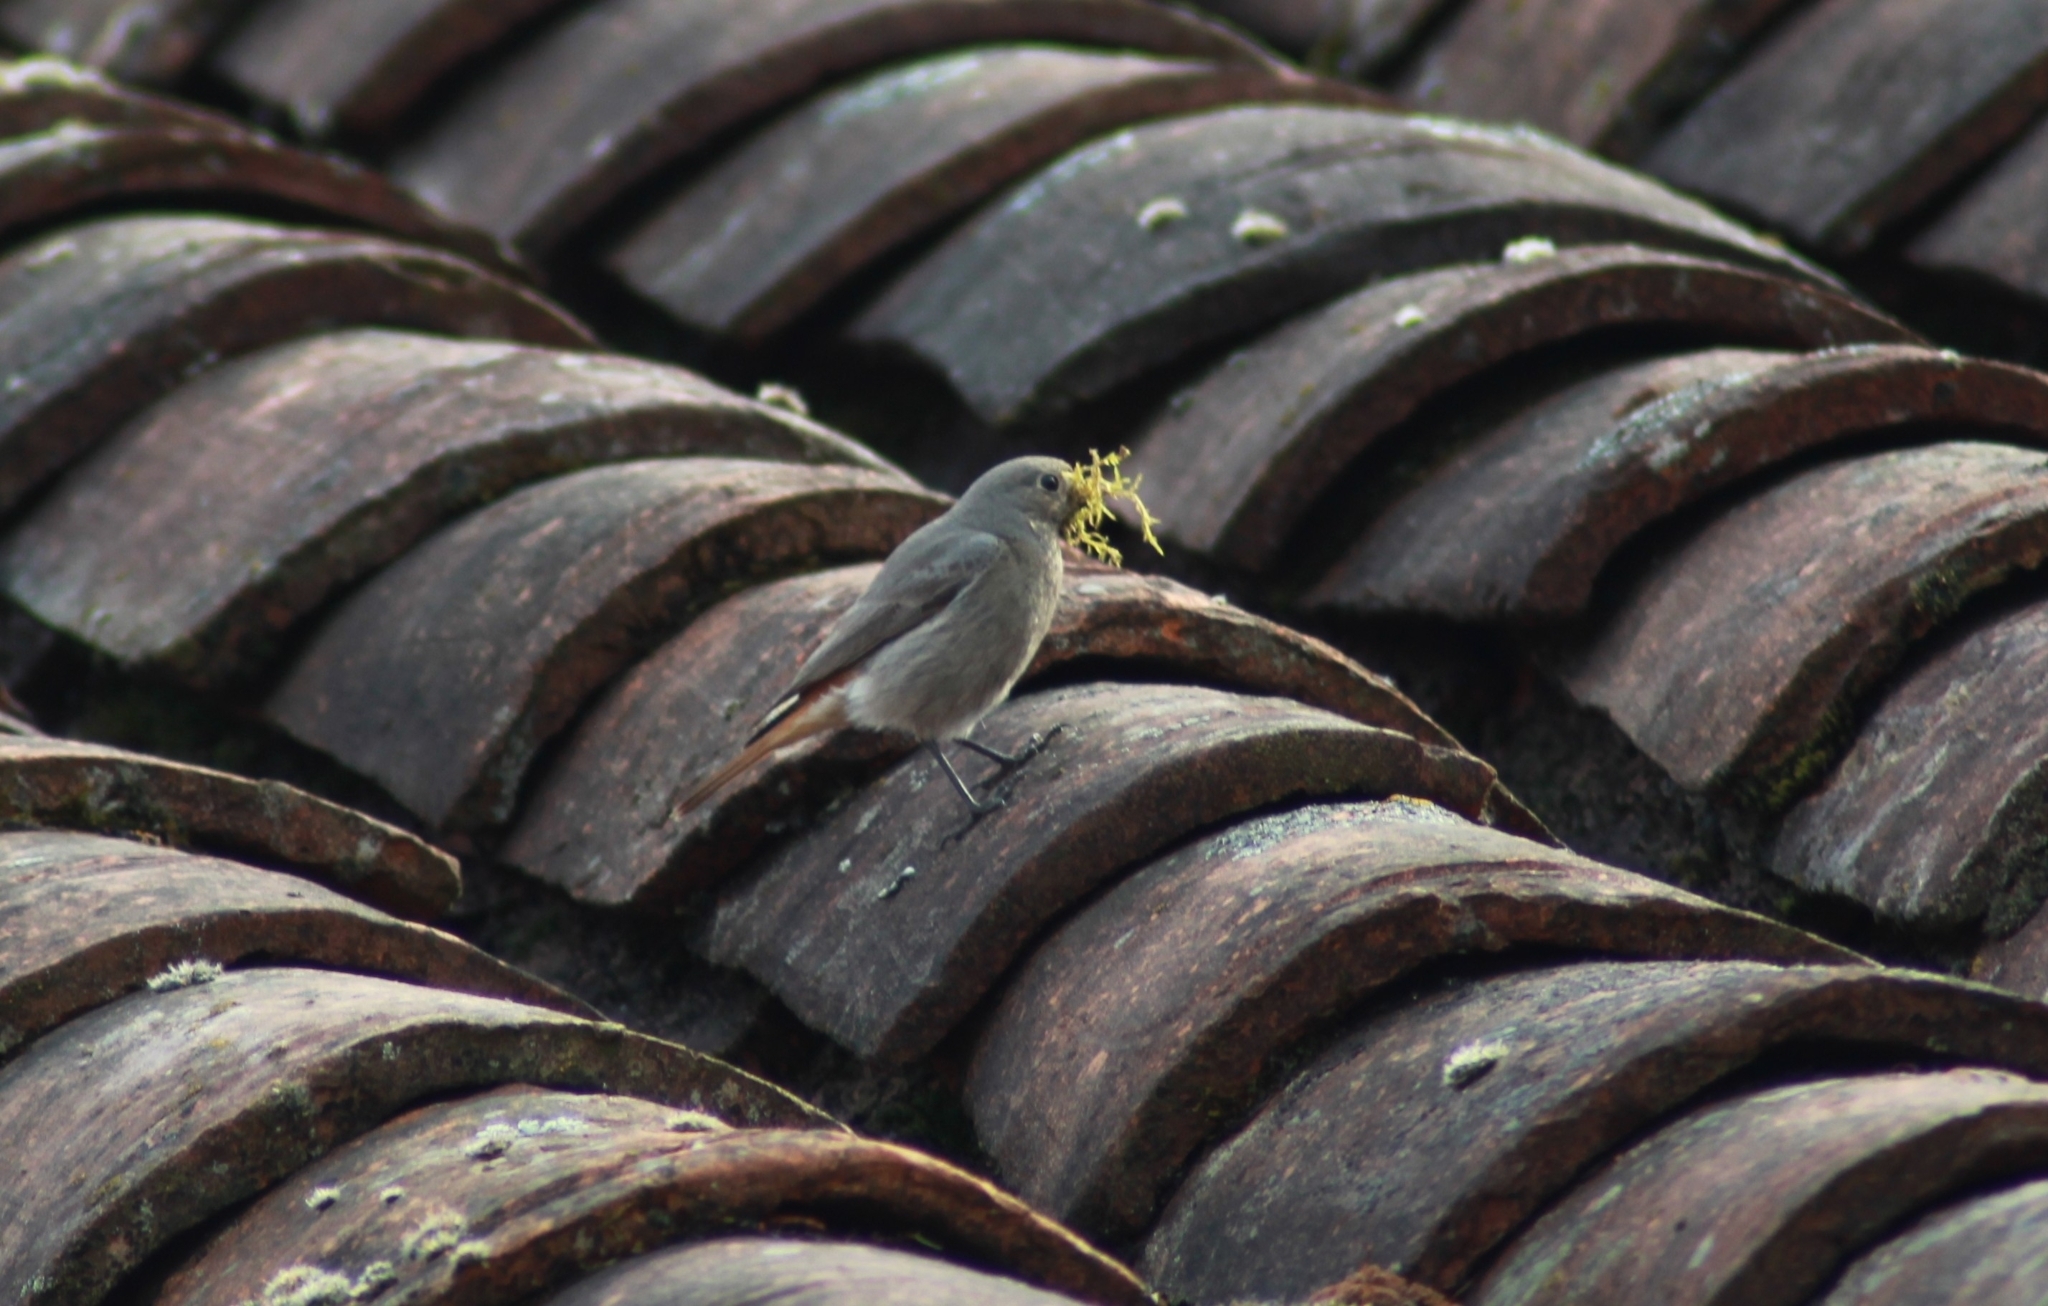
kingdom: Animalia
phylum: Chordata
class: Aves
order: Passeriformes
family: Muscicapidae
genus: Phoenicurus
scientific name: Phoenicurus ochruros
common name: Black redstart
